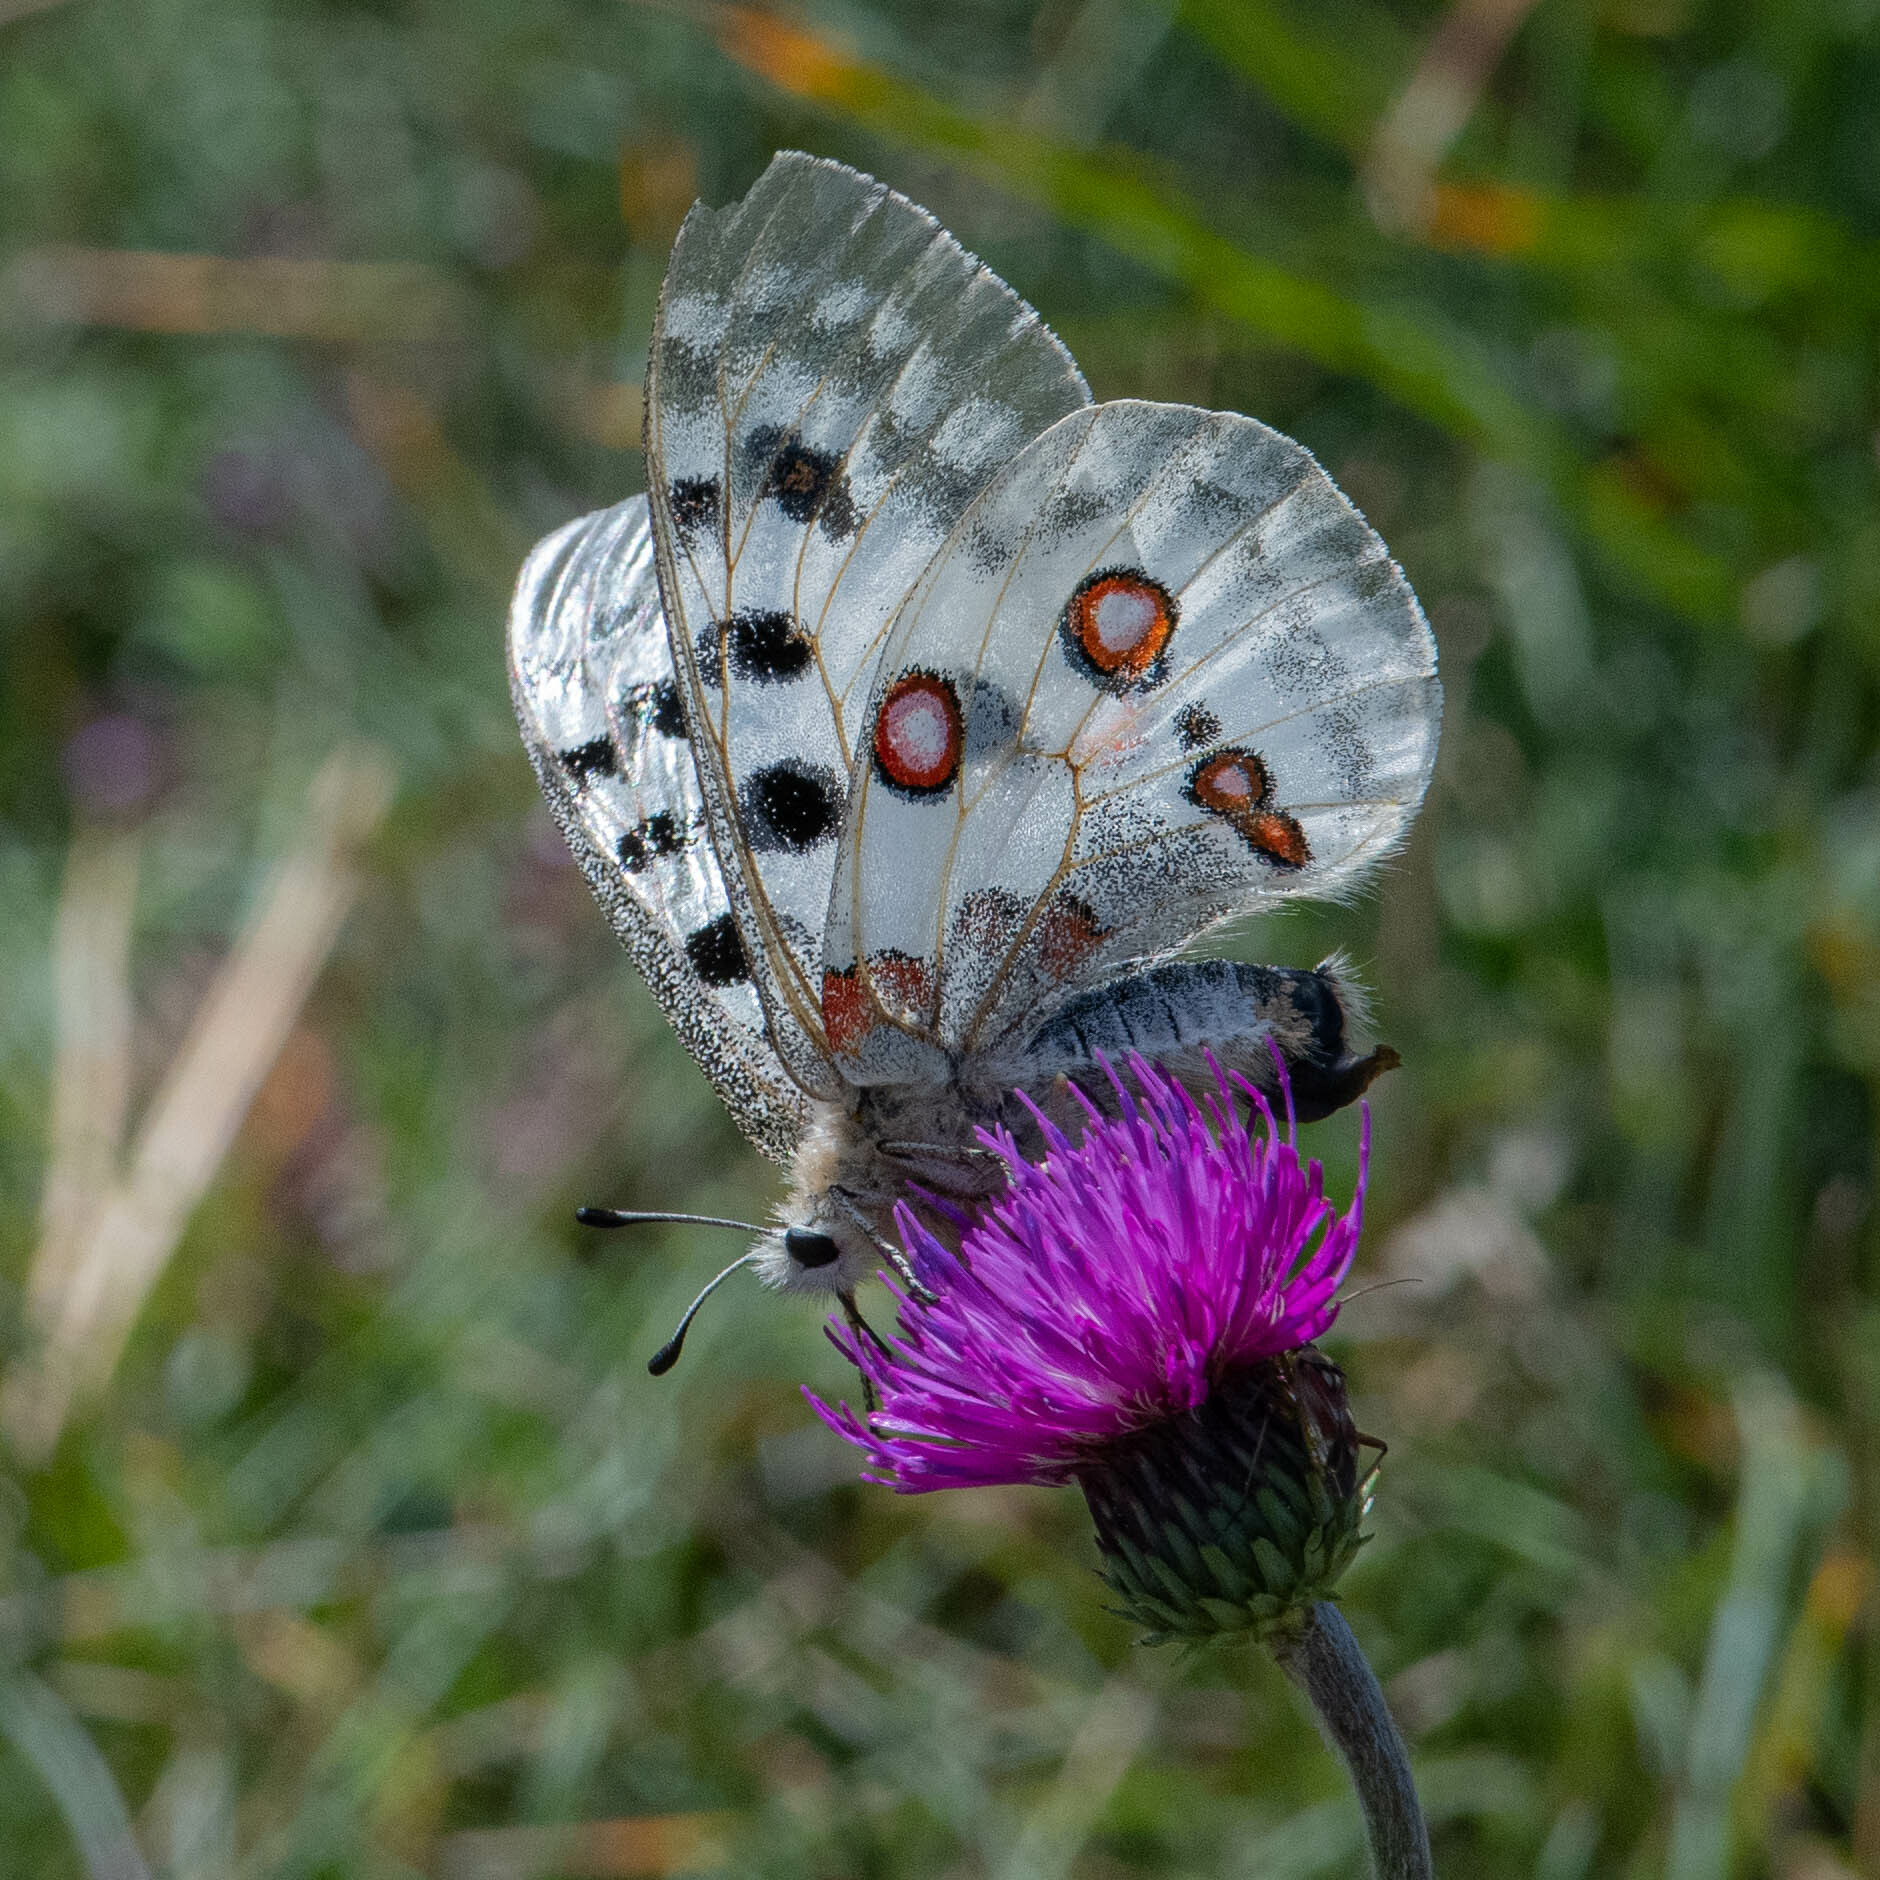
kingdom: Animalia
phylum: Arthropoda
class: Insecta
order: Lepidoptera
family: Papilionidae
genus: Parnassius
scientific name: Parnassius apollo
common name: Apollo
